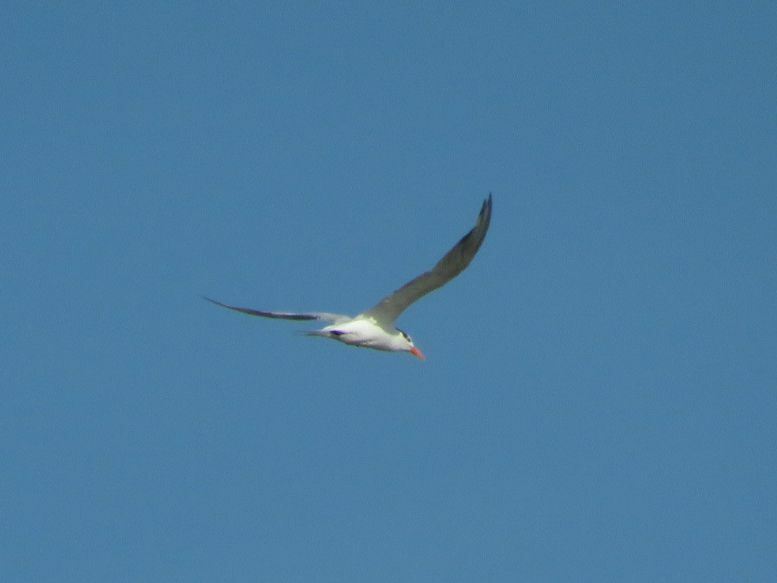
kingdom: Animalia
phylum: Chordata
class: Aves
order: Charadriiformes
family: Laridae
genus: Thalasseus
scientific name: Thalasseus maximus
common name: Royal tern
